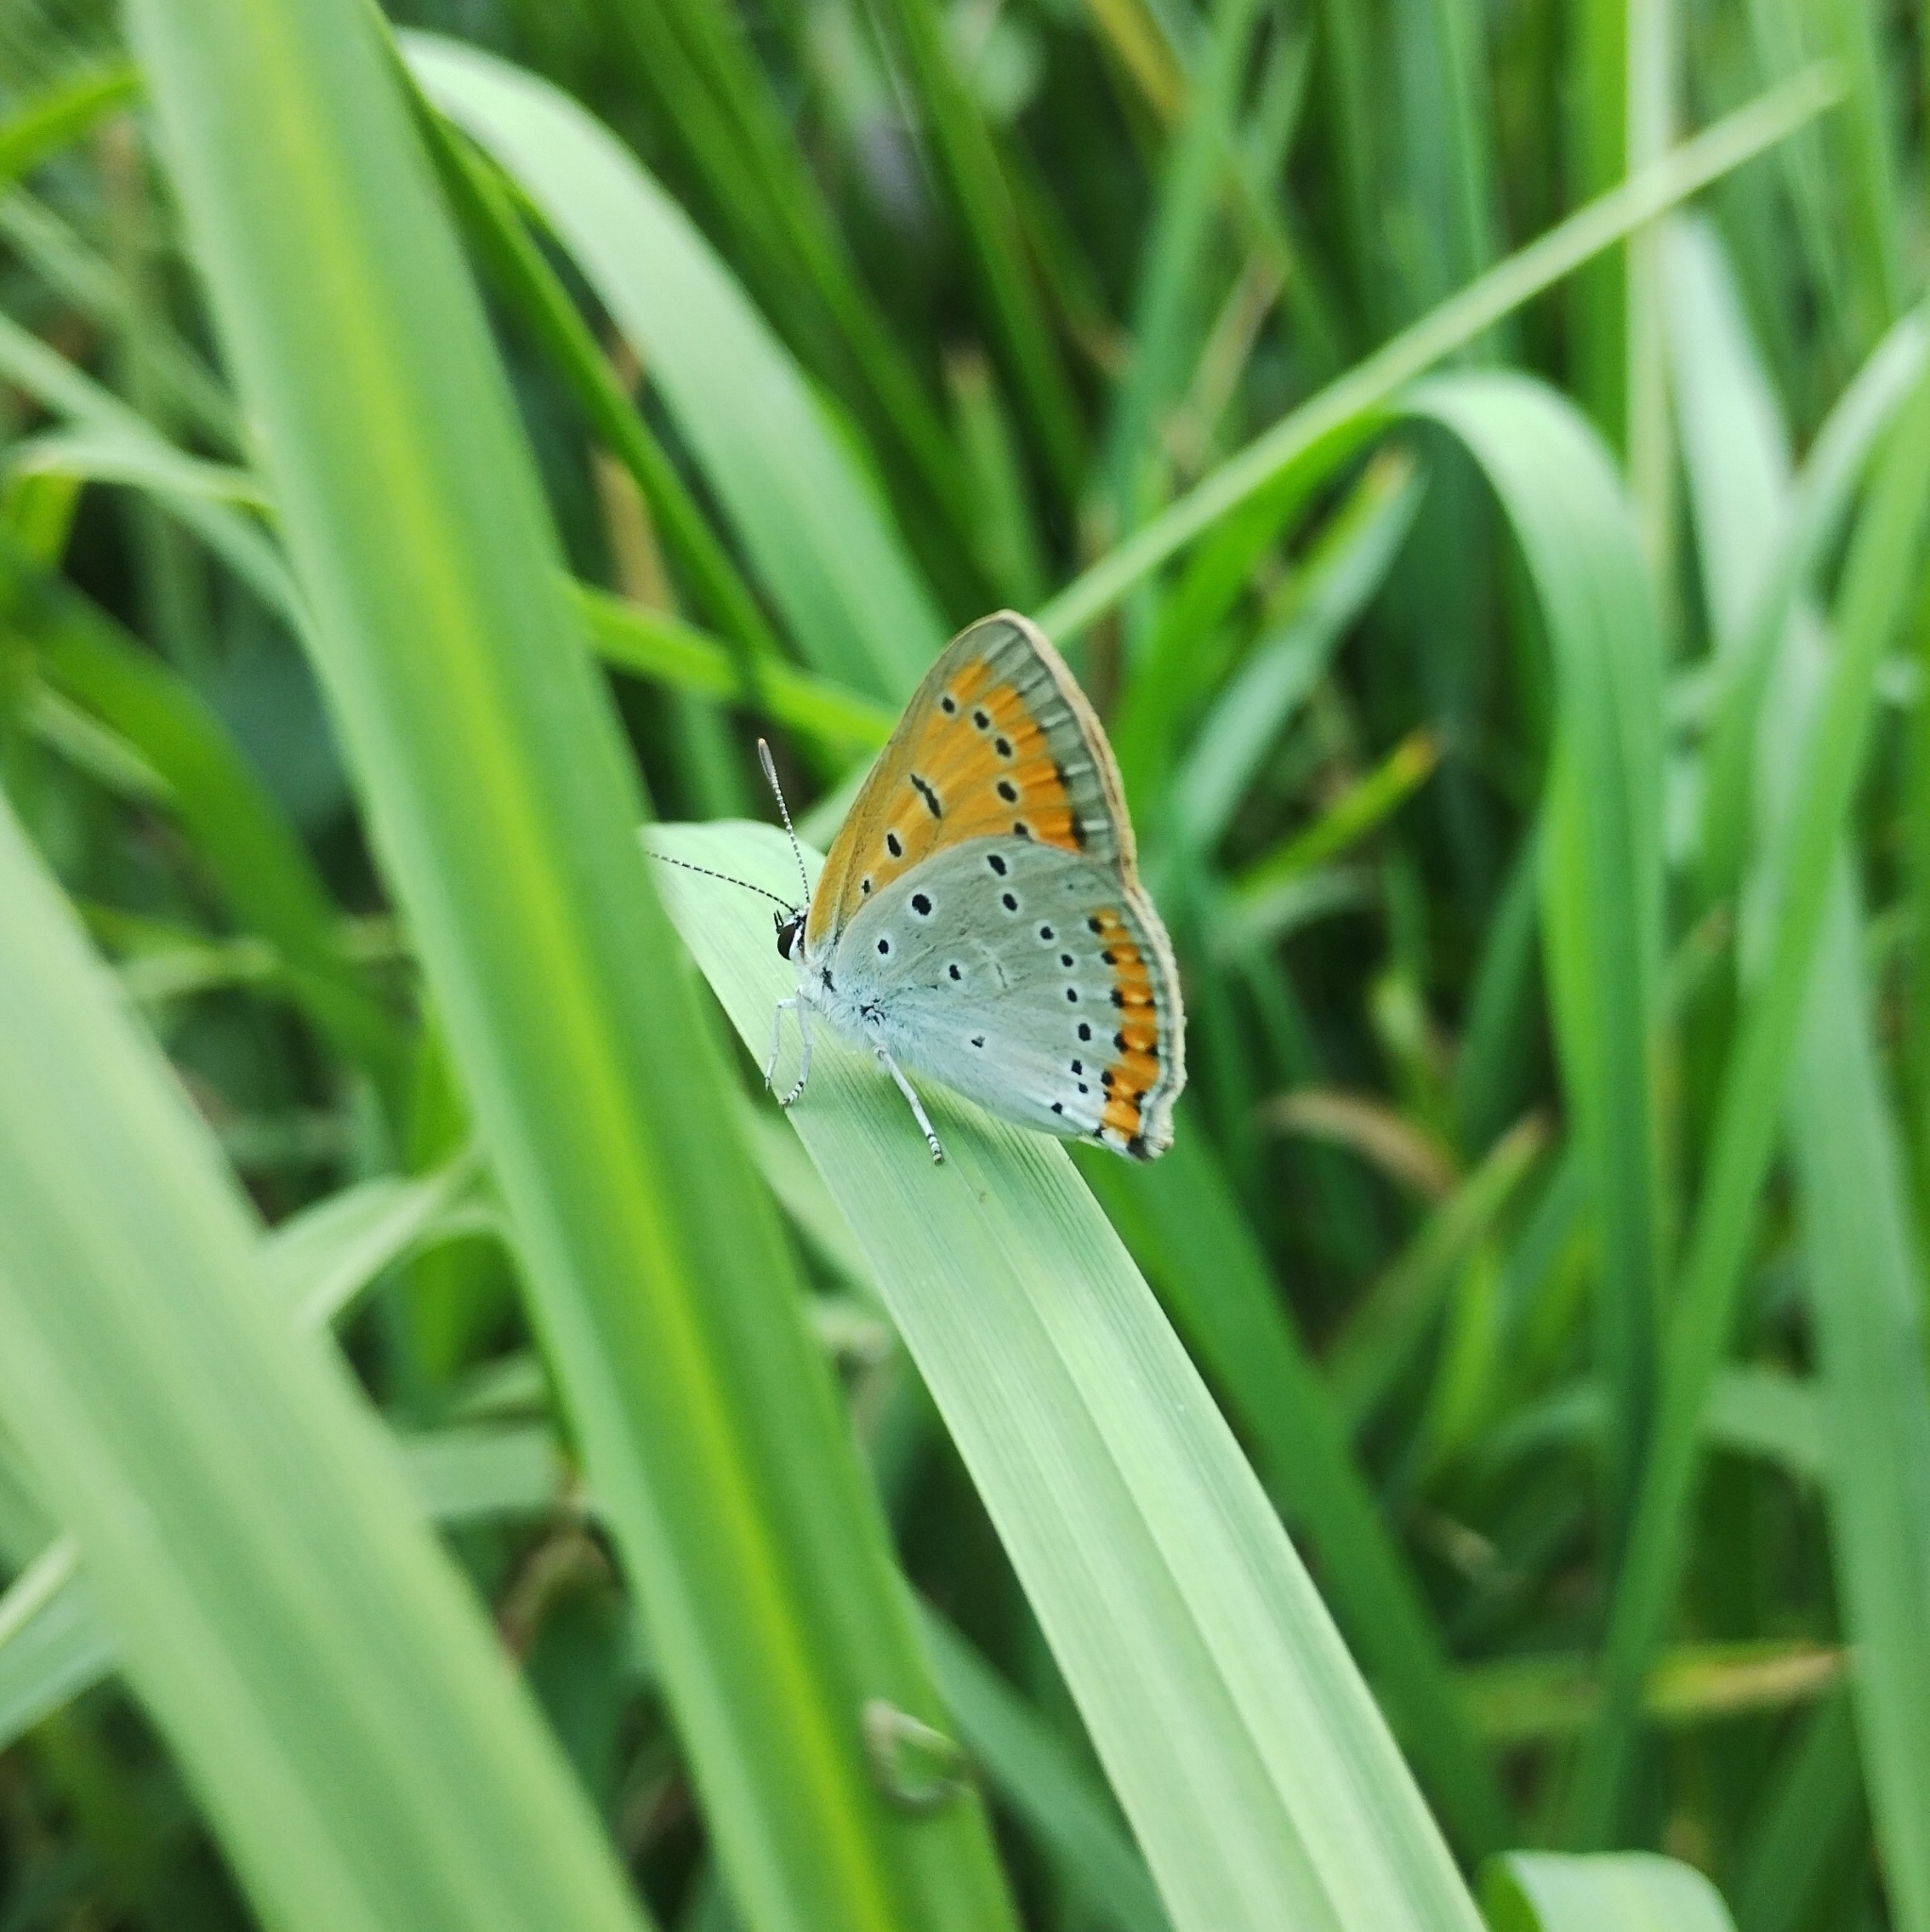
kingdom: Animalia
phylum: Arthropoda
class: Insecta
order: Lepidoptera
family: Lycaenidae
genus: Lycaena
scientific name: Lycaena dispar
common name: Large copper
